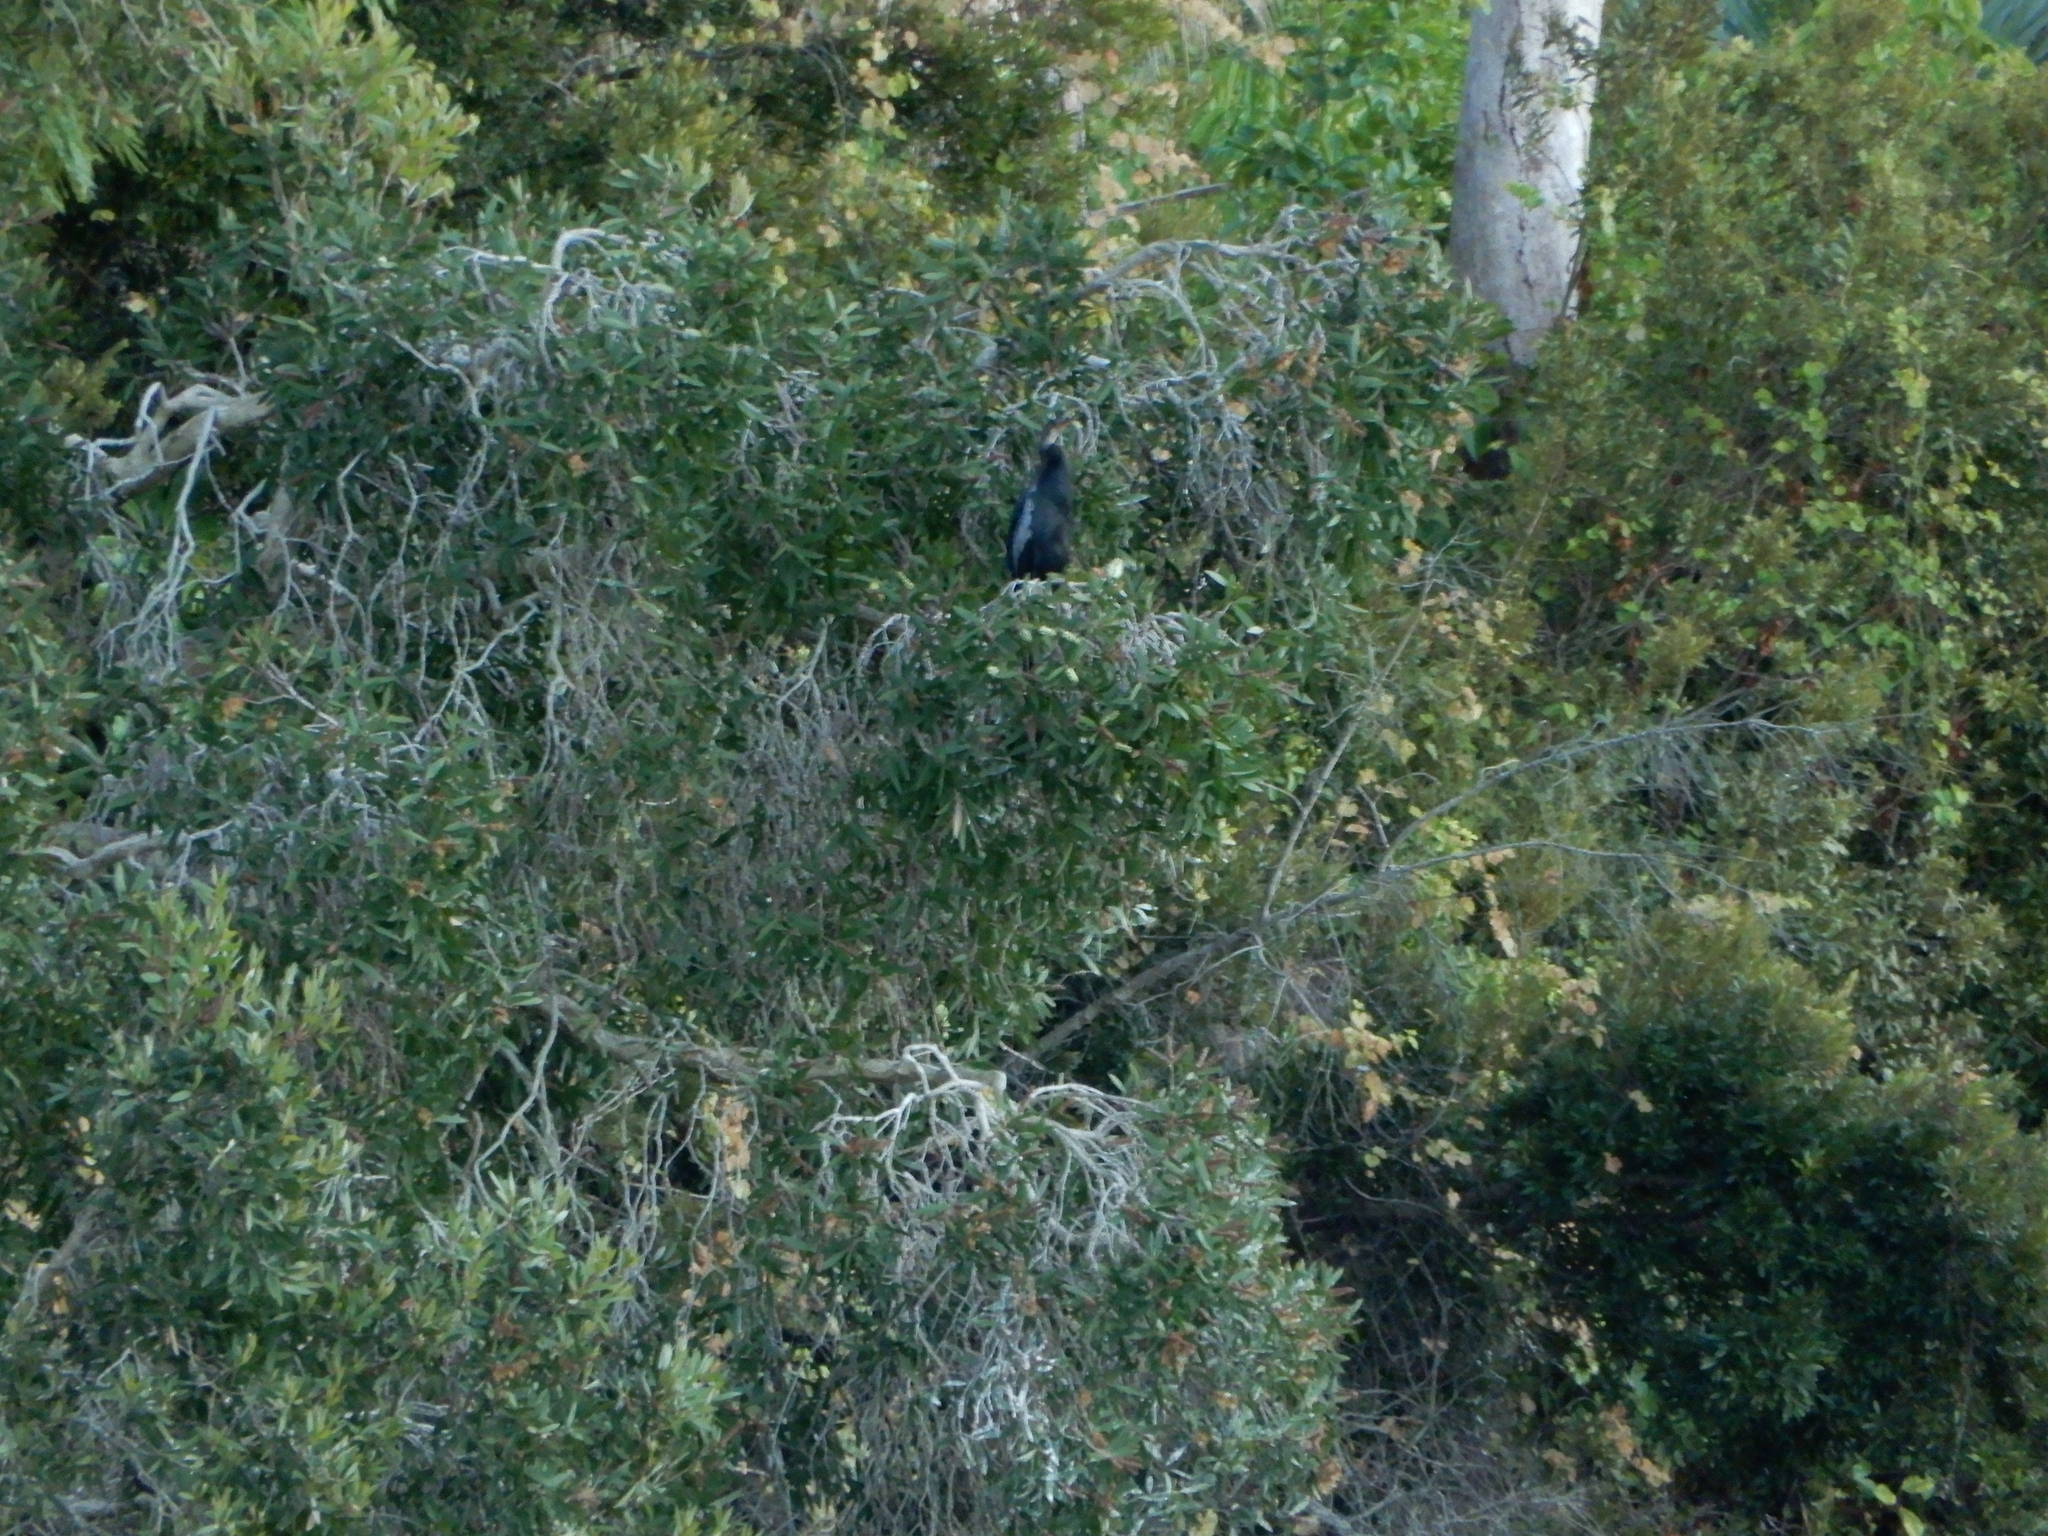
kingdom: Animalia
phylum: Chordata
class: Aves
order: Suliformes
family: Anhingidae
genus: Anhinga
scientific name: Anhinga anhinga
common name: Anhinga
